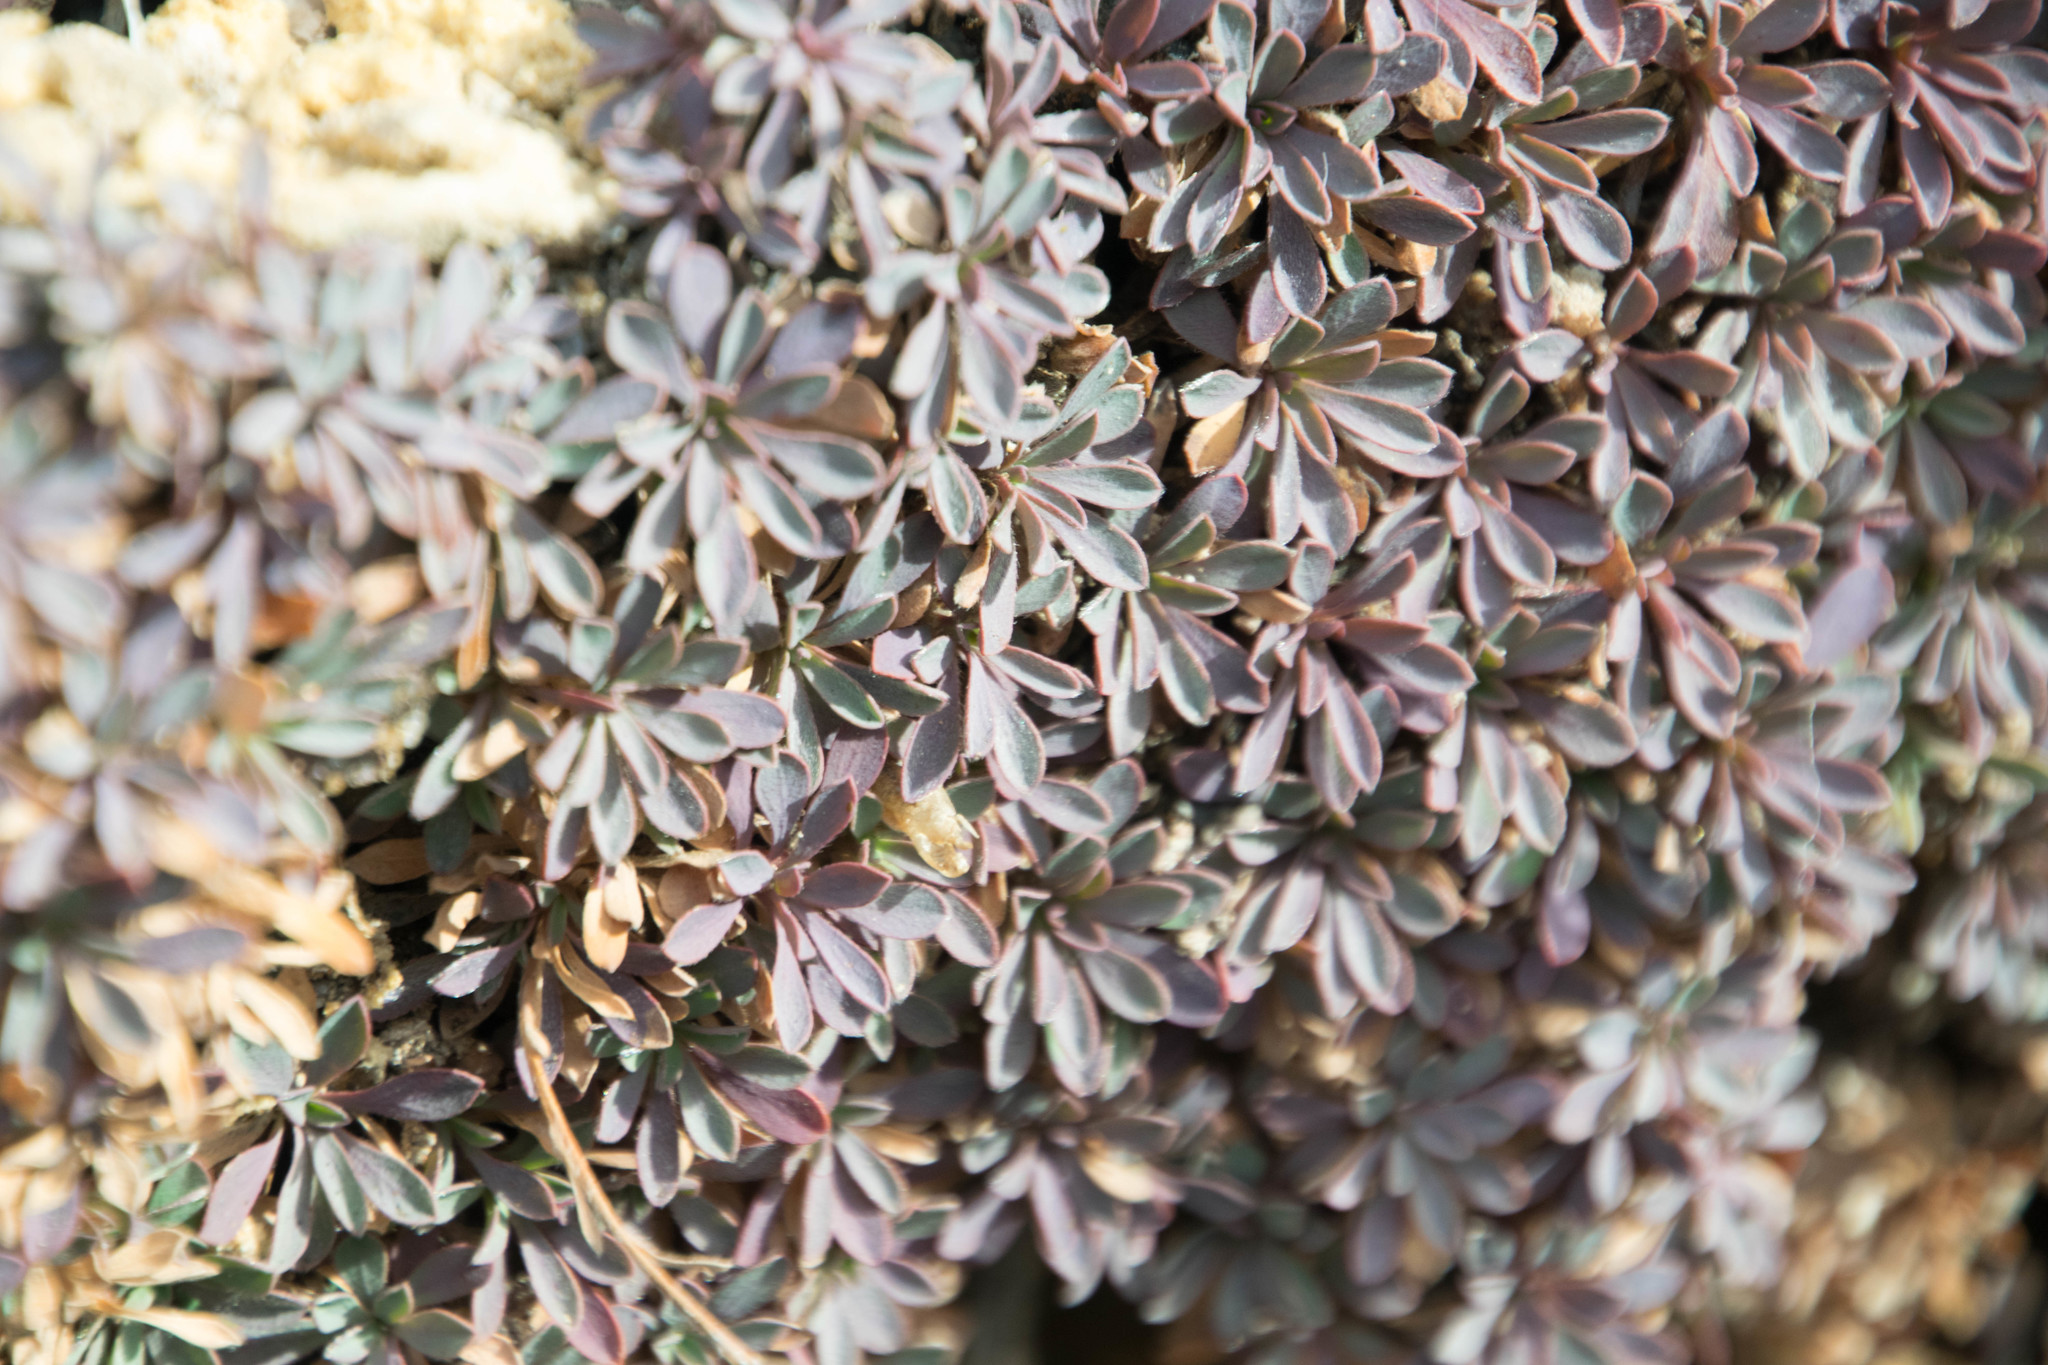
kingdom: Plantae
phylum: Tracheophyta
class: Magnoliopsida
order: Rosales
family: Rosaceae
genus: Petrophytum
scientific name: Petrophytum caespitosum
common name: Mat rockspirea
